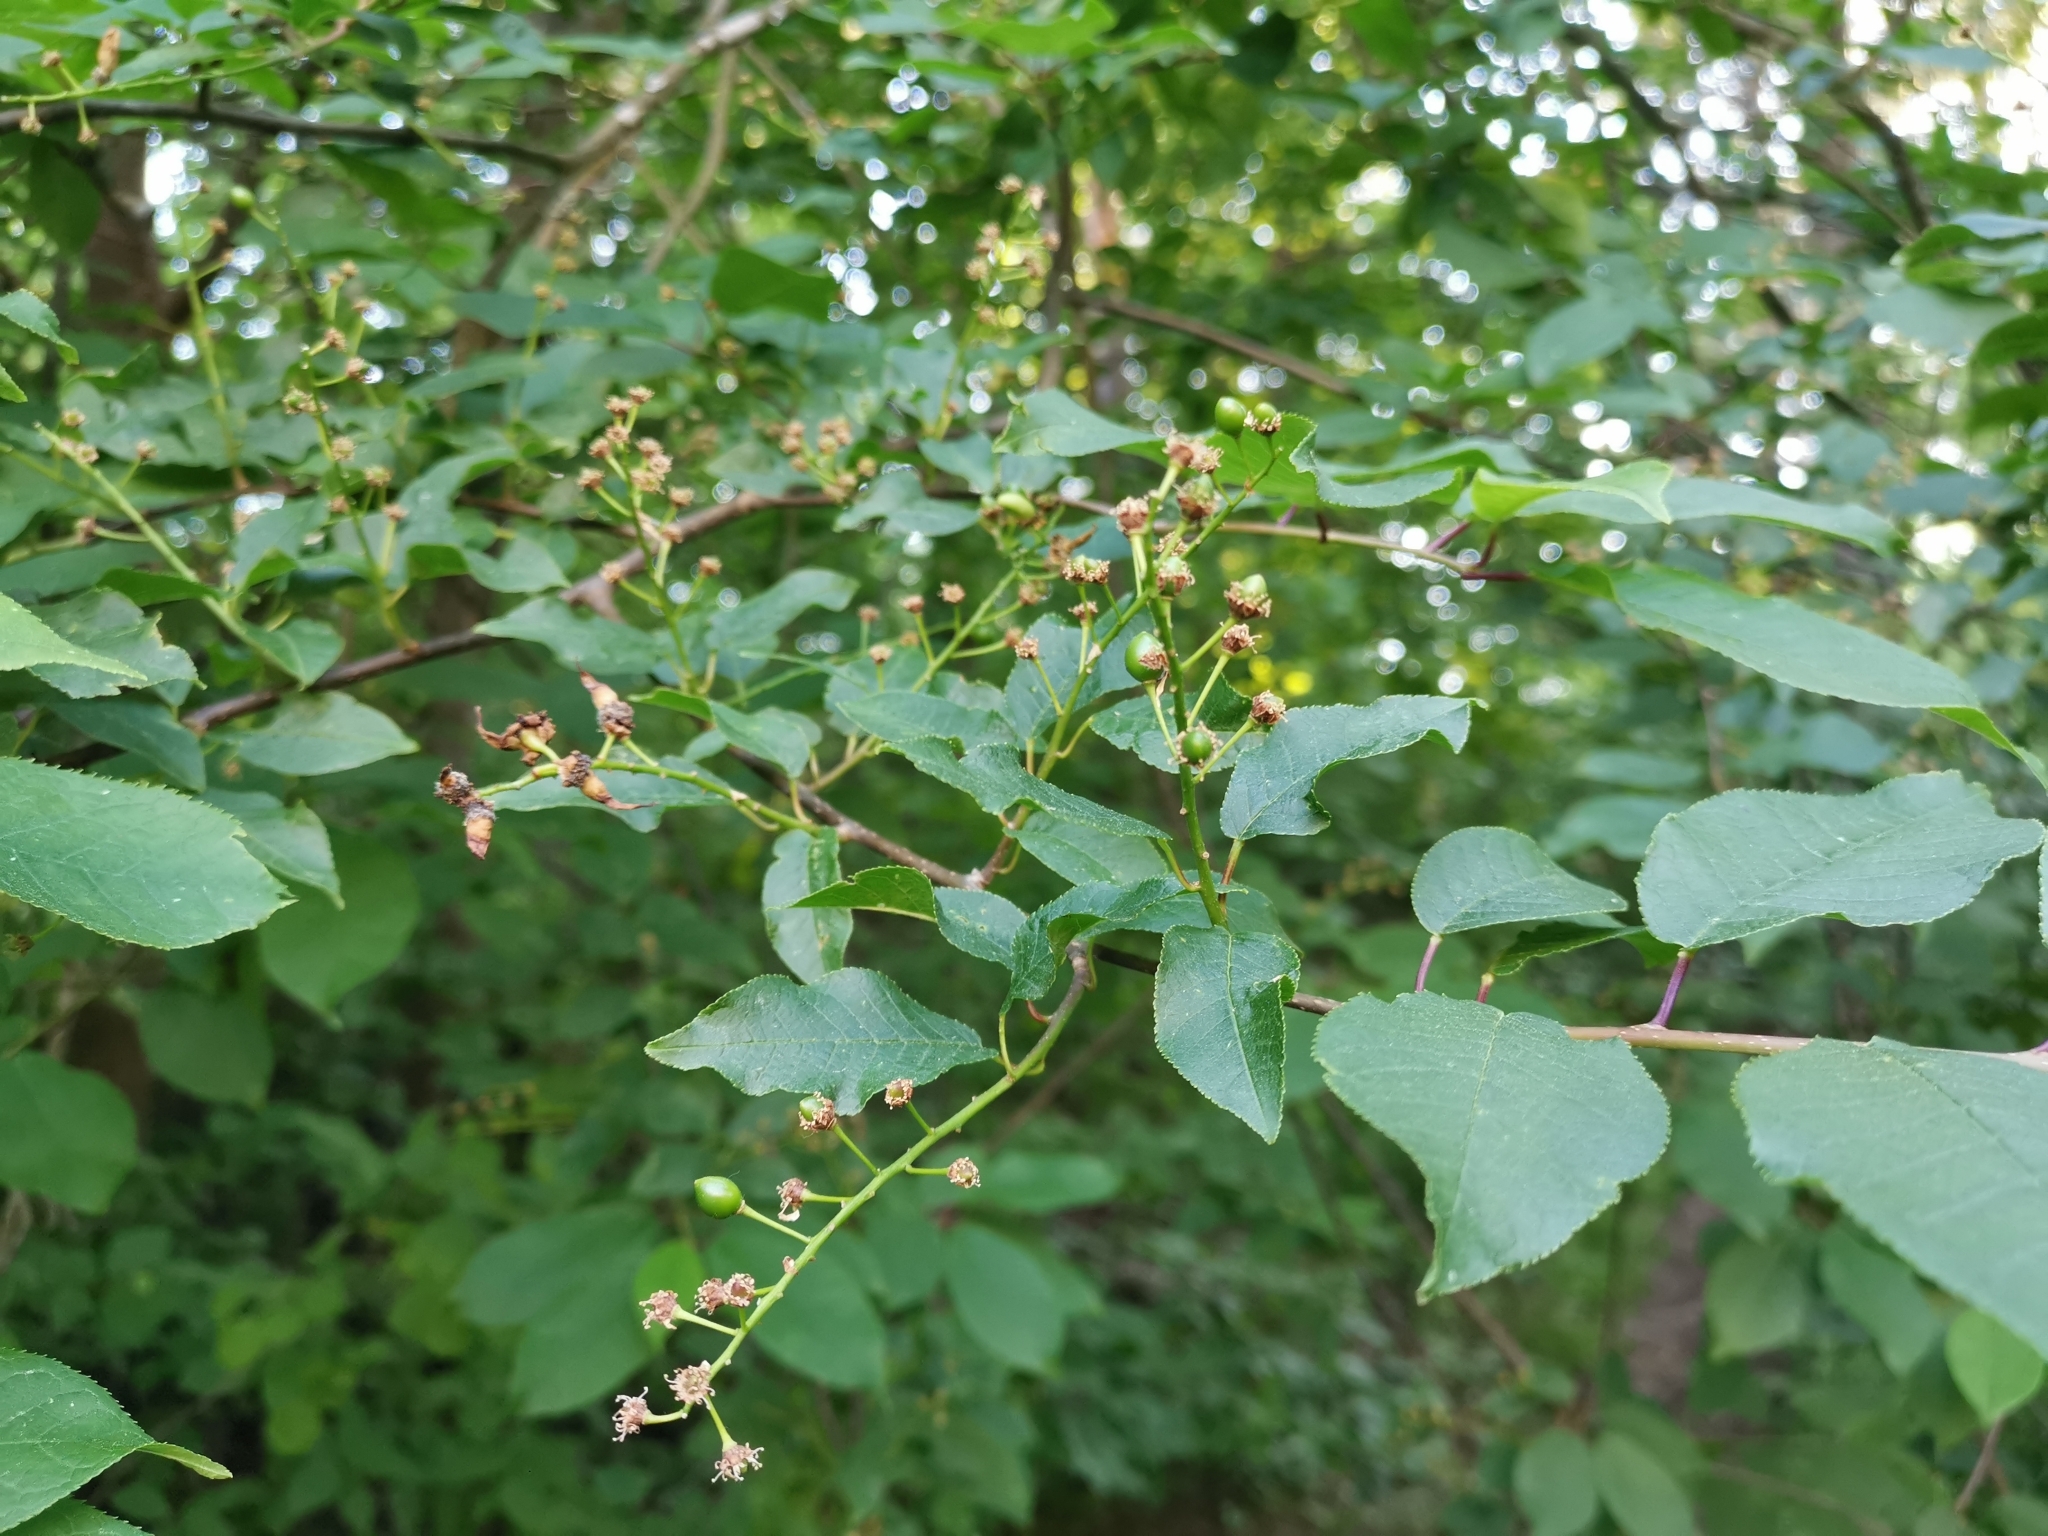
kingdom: Plantae
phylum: Tracheophyta
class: Magnoliopsida
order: Rosales
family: Rosaceae
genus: Prunus
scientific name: Prunus padus
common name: Bird cherry
